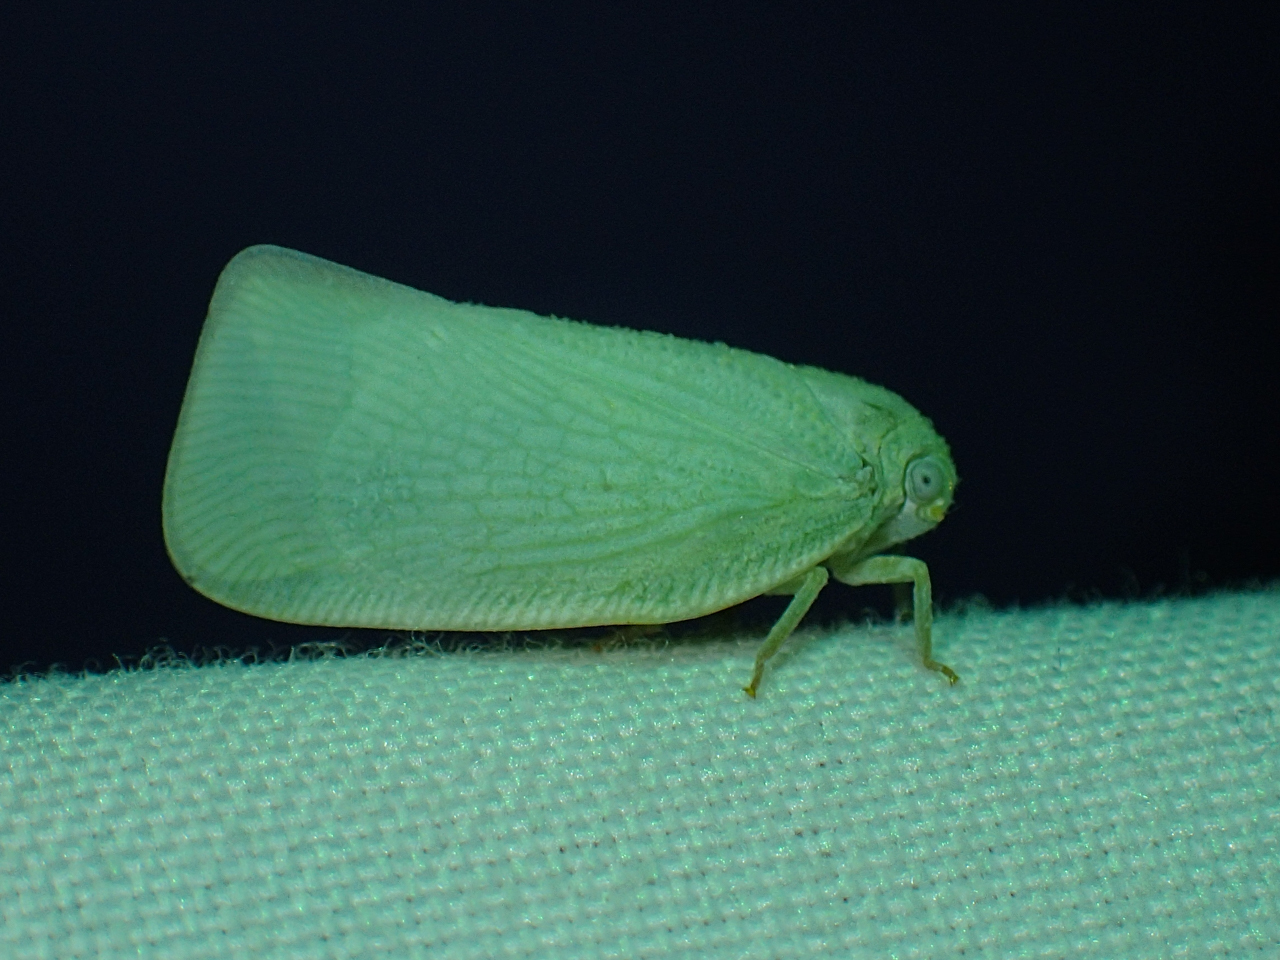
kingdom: Animalia
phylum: Arthropoda
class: Insecta
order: Hemiptera
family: Flatidae
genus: Flatormenis
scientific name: Flatormenis proxima
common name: Northern flatid planthopper
